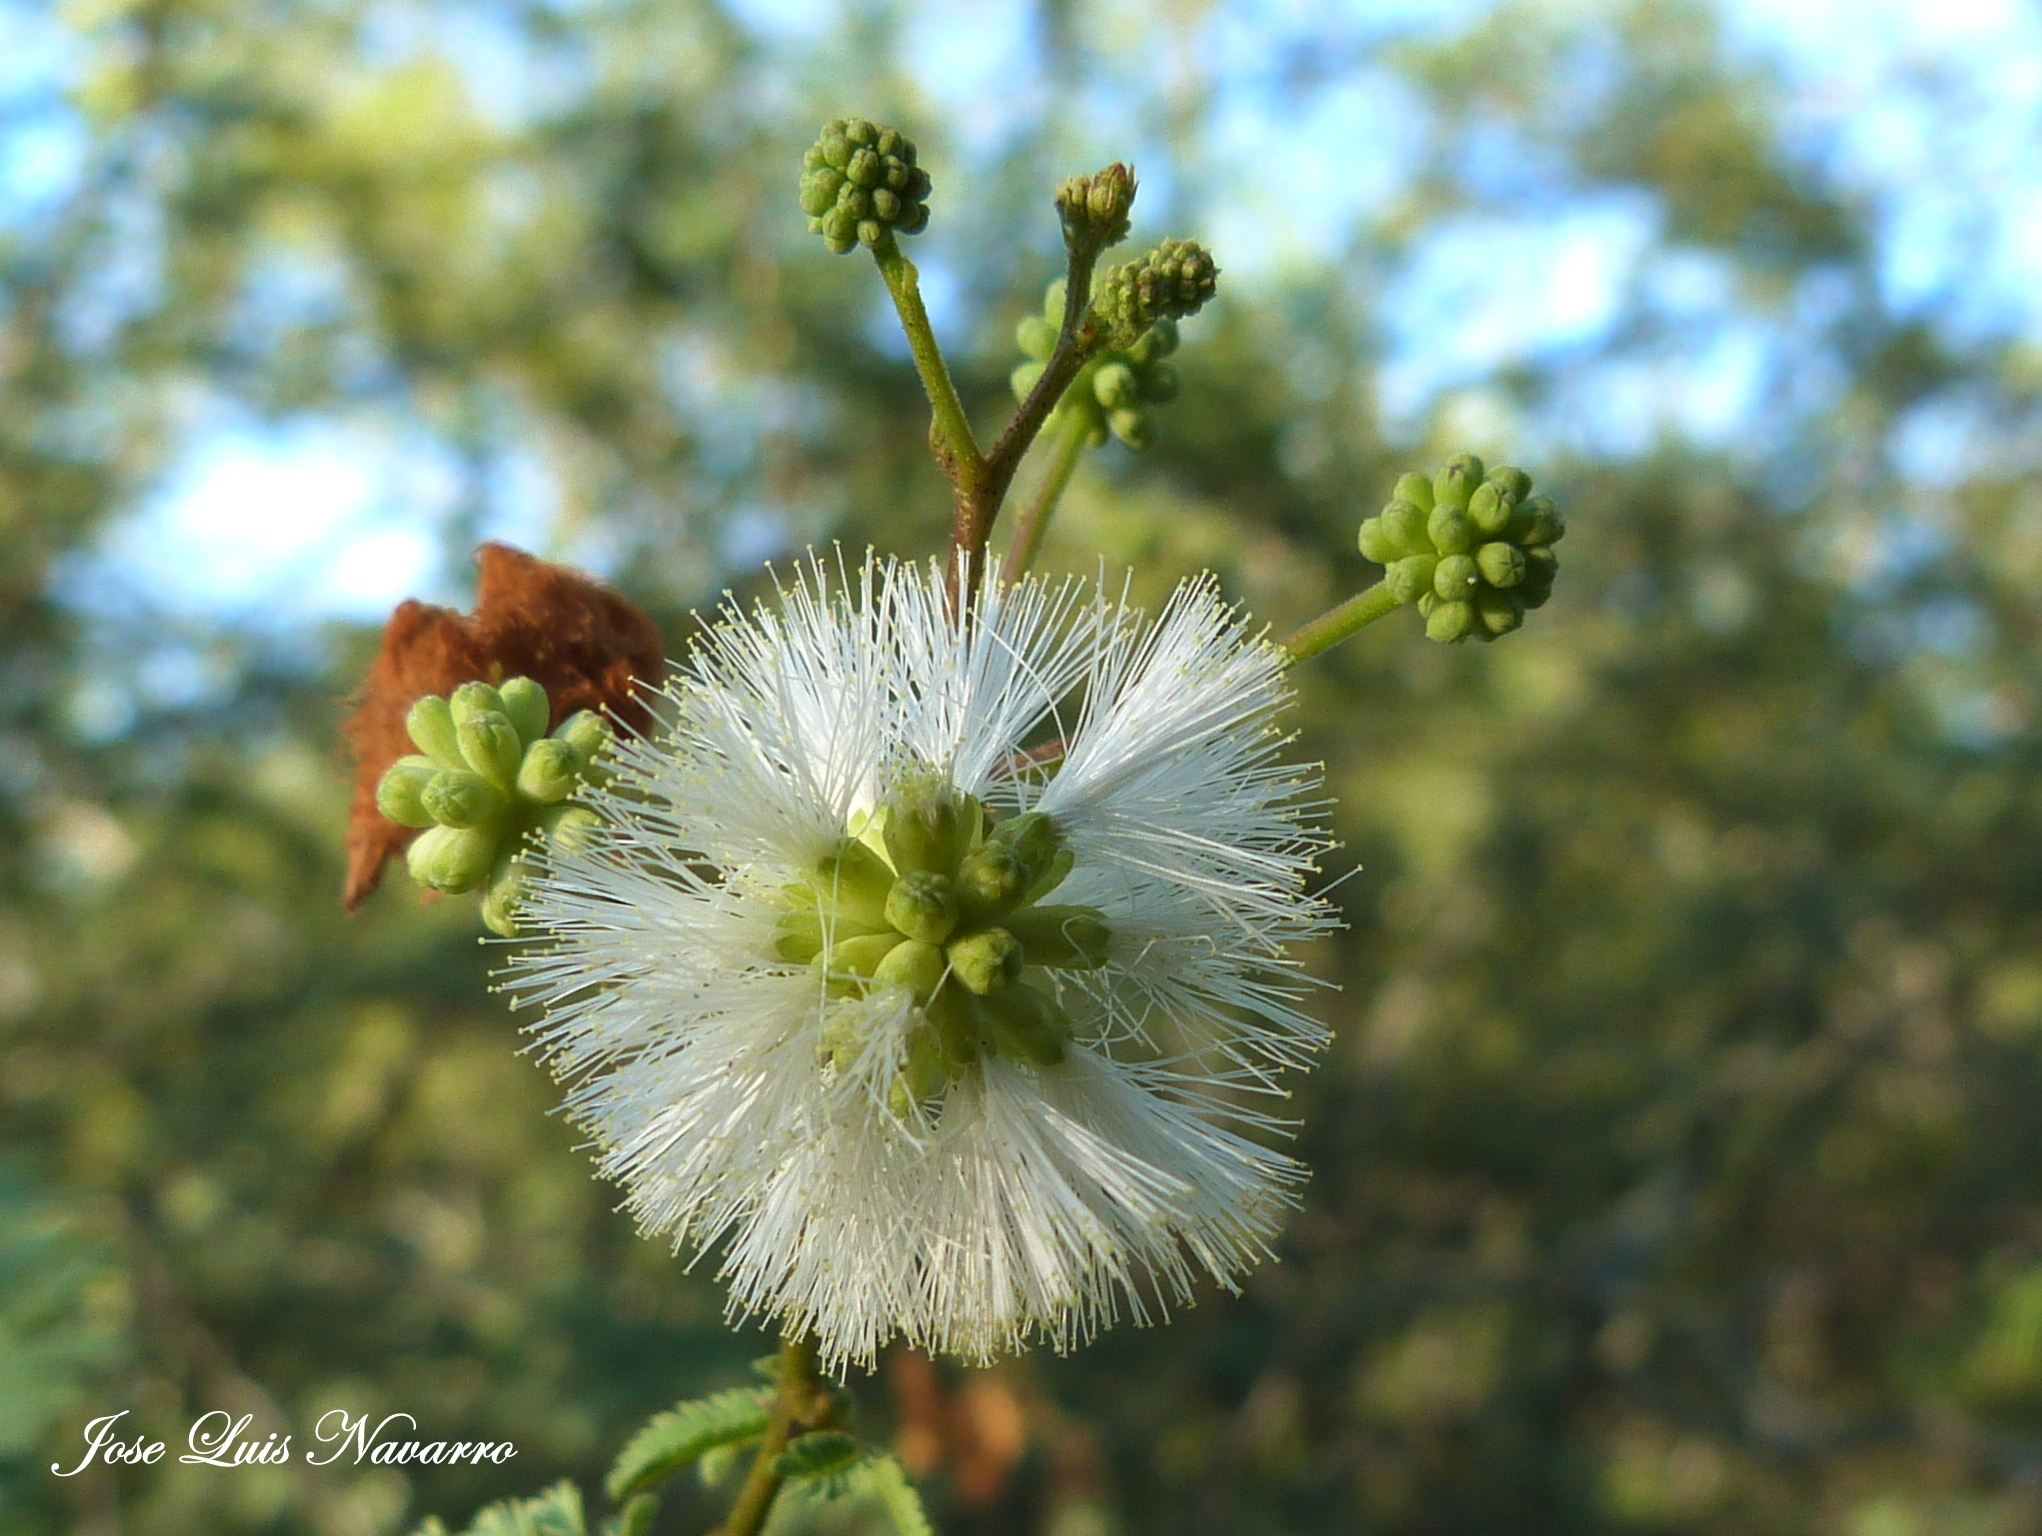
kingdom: Plantae
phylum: Tracheophyta
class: Magnoliopsida
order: Fabales
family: Fabaceae
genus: Senegalia
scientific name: Senegalia gilliesii
